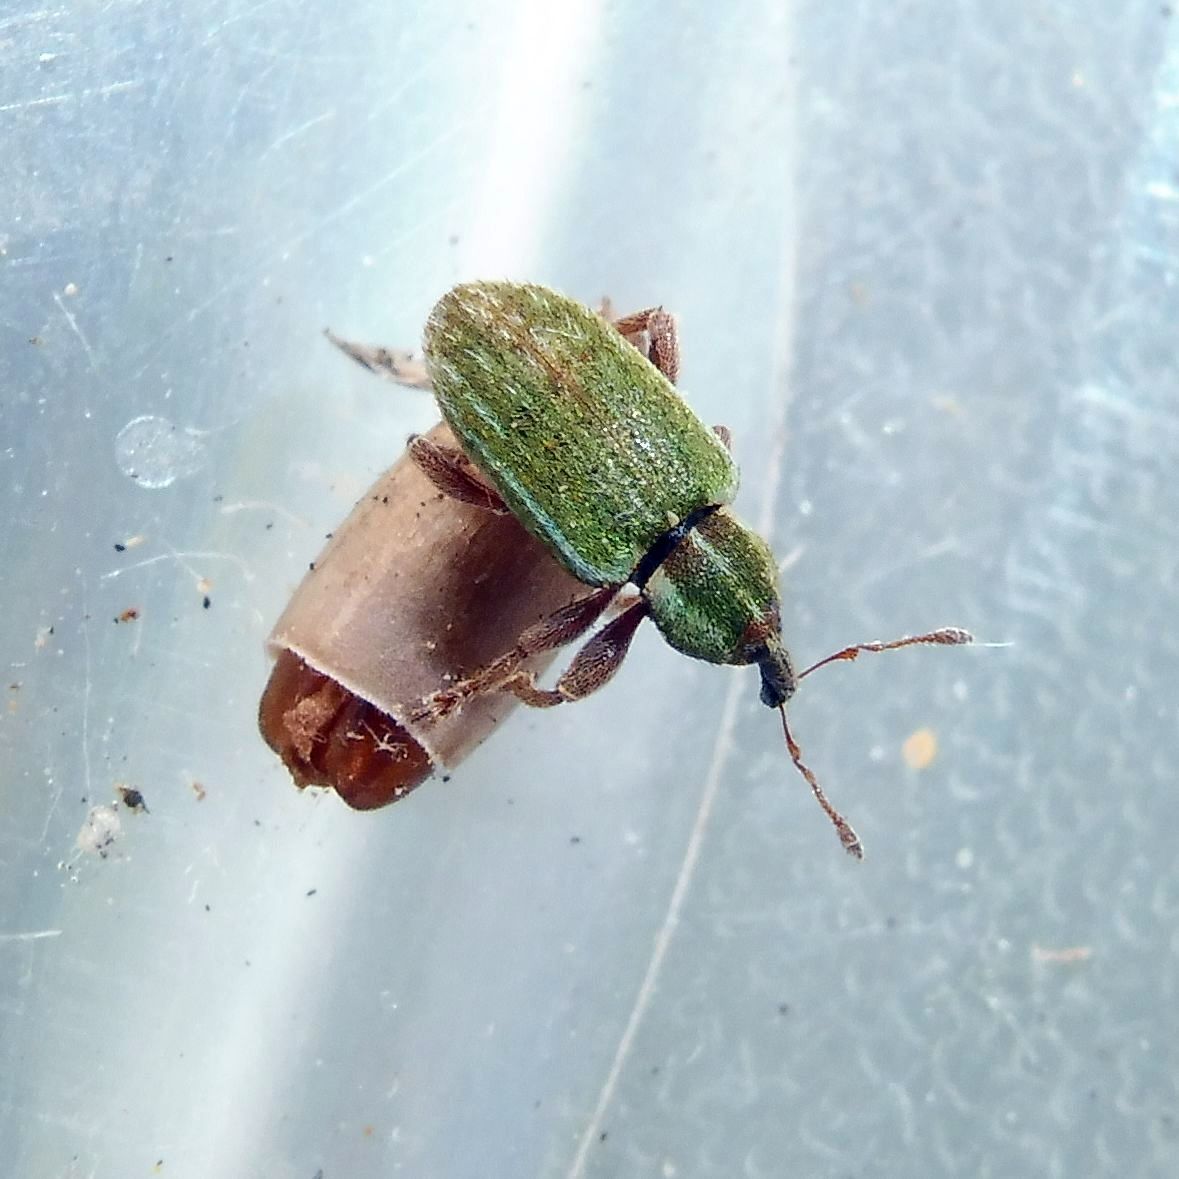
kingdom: Animalia
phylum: Arthropoda
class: Insecta
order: Coleoptera
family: Curculionidae
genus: Hypera
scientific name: Hypera nigrirostris
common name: Black-beaked green weevil
